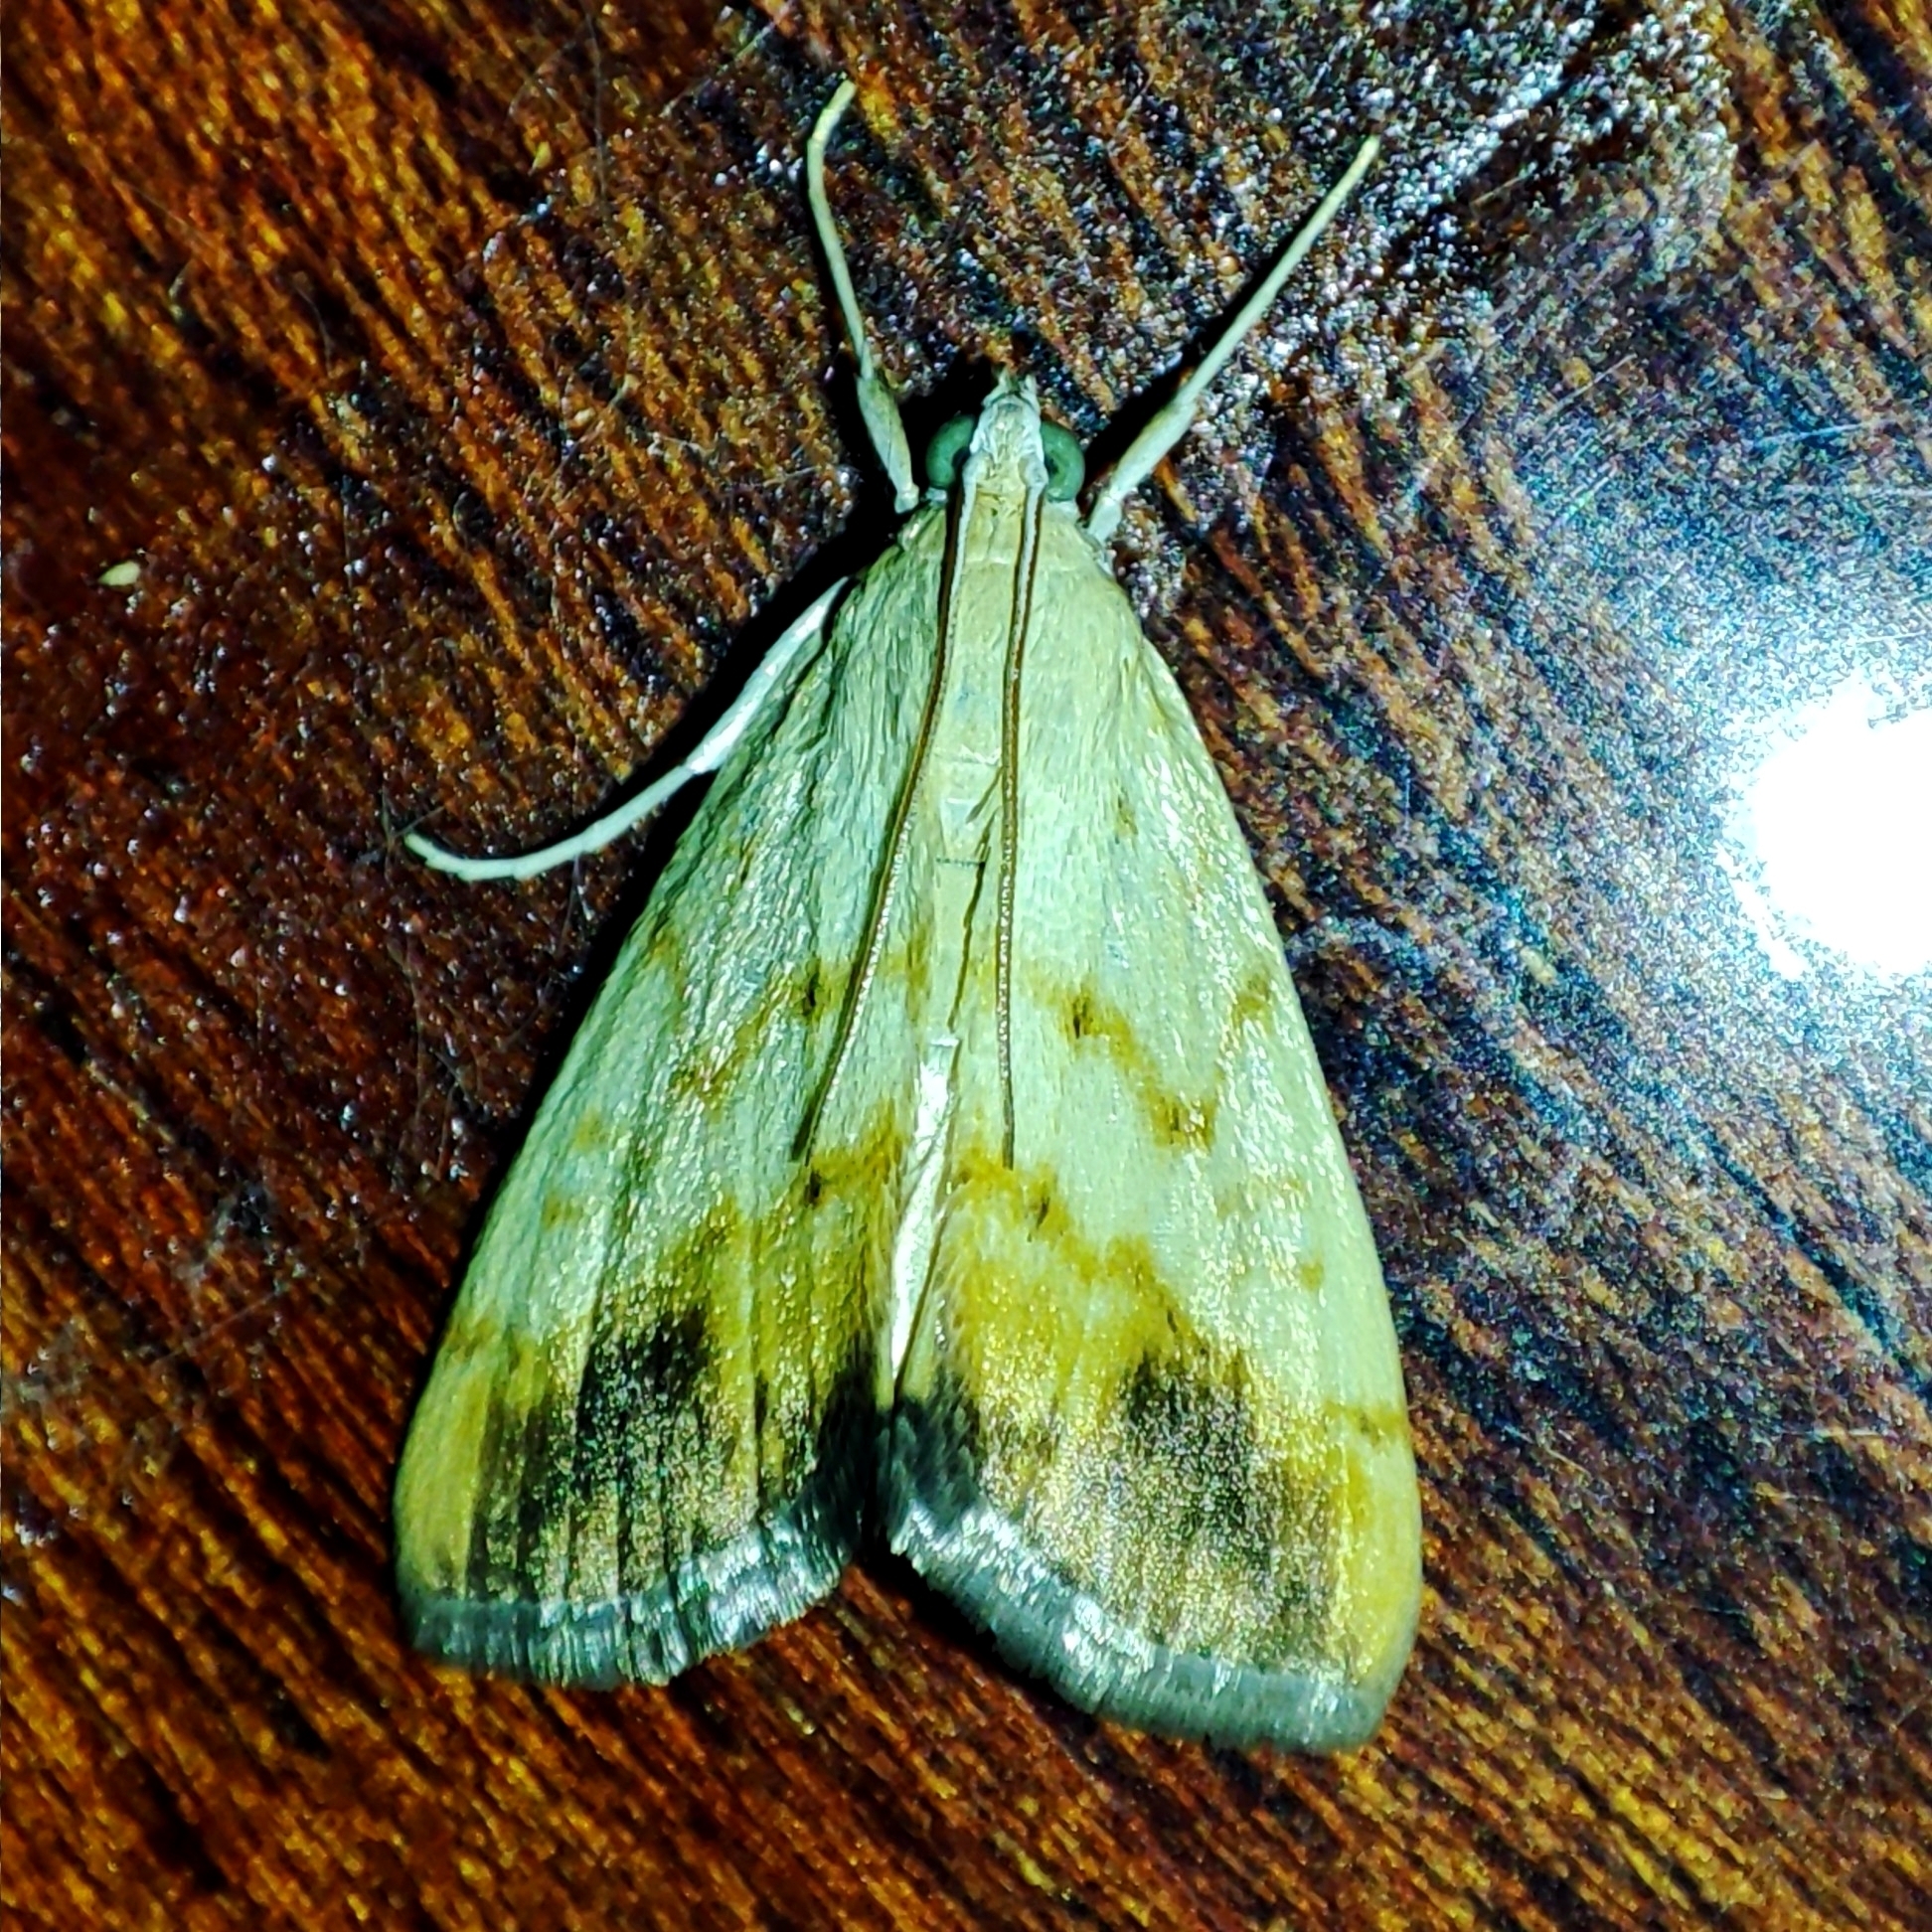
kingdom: Animalia
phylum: Arthropoda
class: Insecta
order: Lepidoptera
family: Crambidae
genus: Evergestis
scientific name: Evergestis extimalis
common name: Marbled yellow pearl
